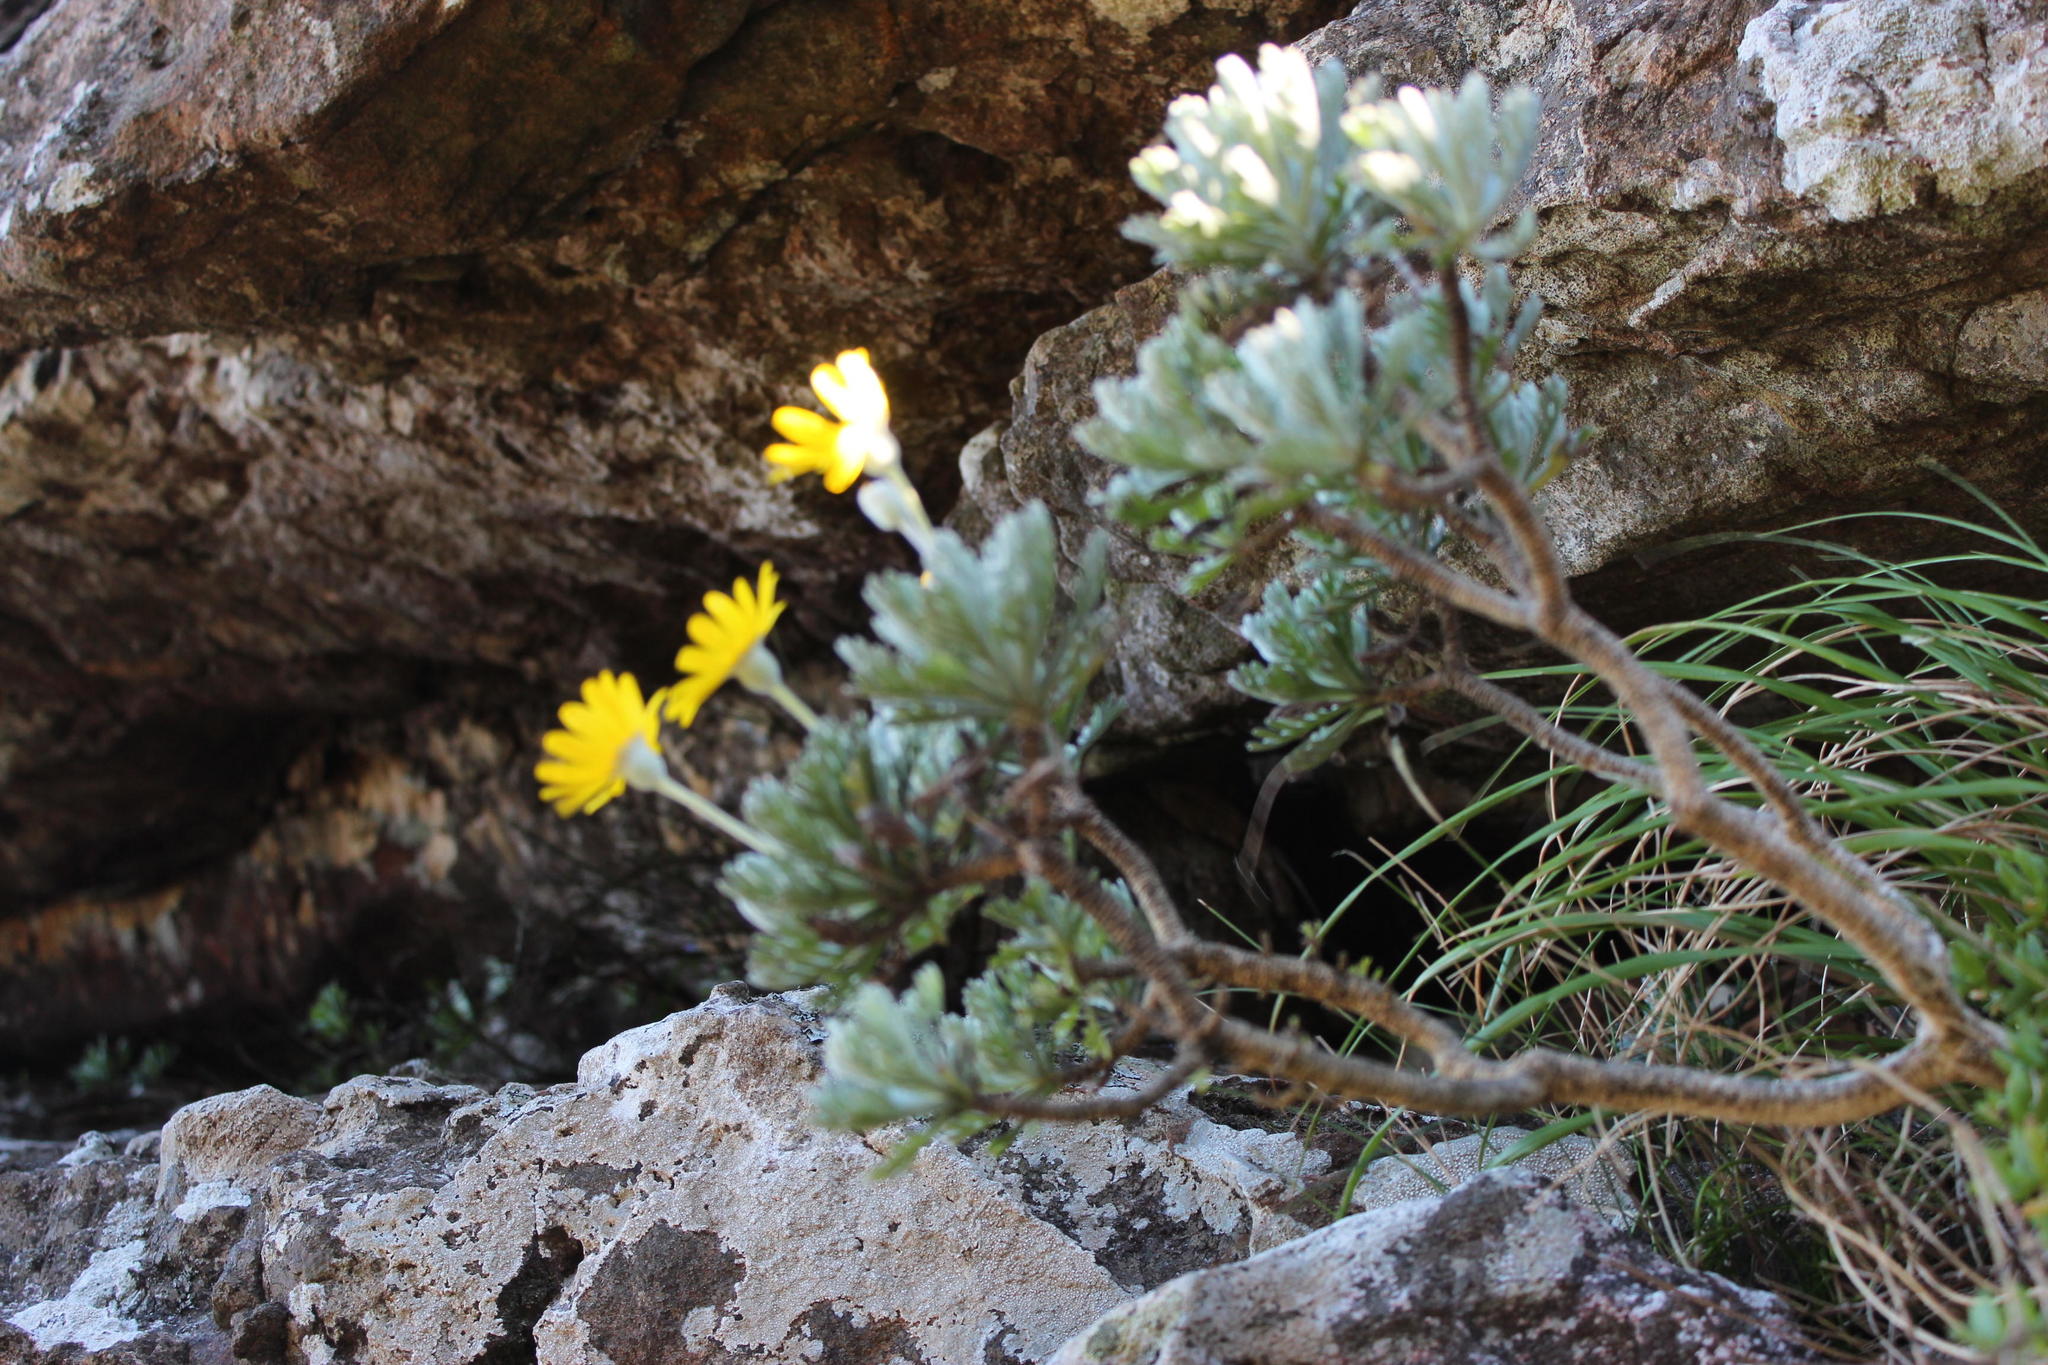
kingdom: Plantae
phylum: Tracheophyta
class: Magnoliopsida
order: Asterales
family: Asteraceae
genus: Euryops
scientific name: Euryops pectinatus
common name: Gray-leaf euryops
